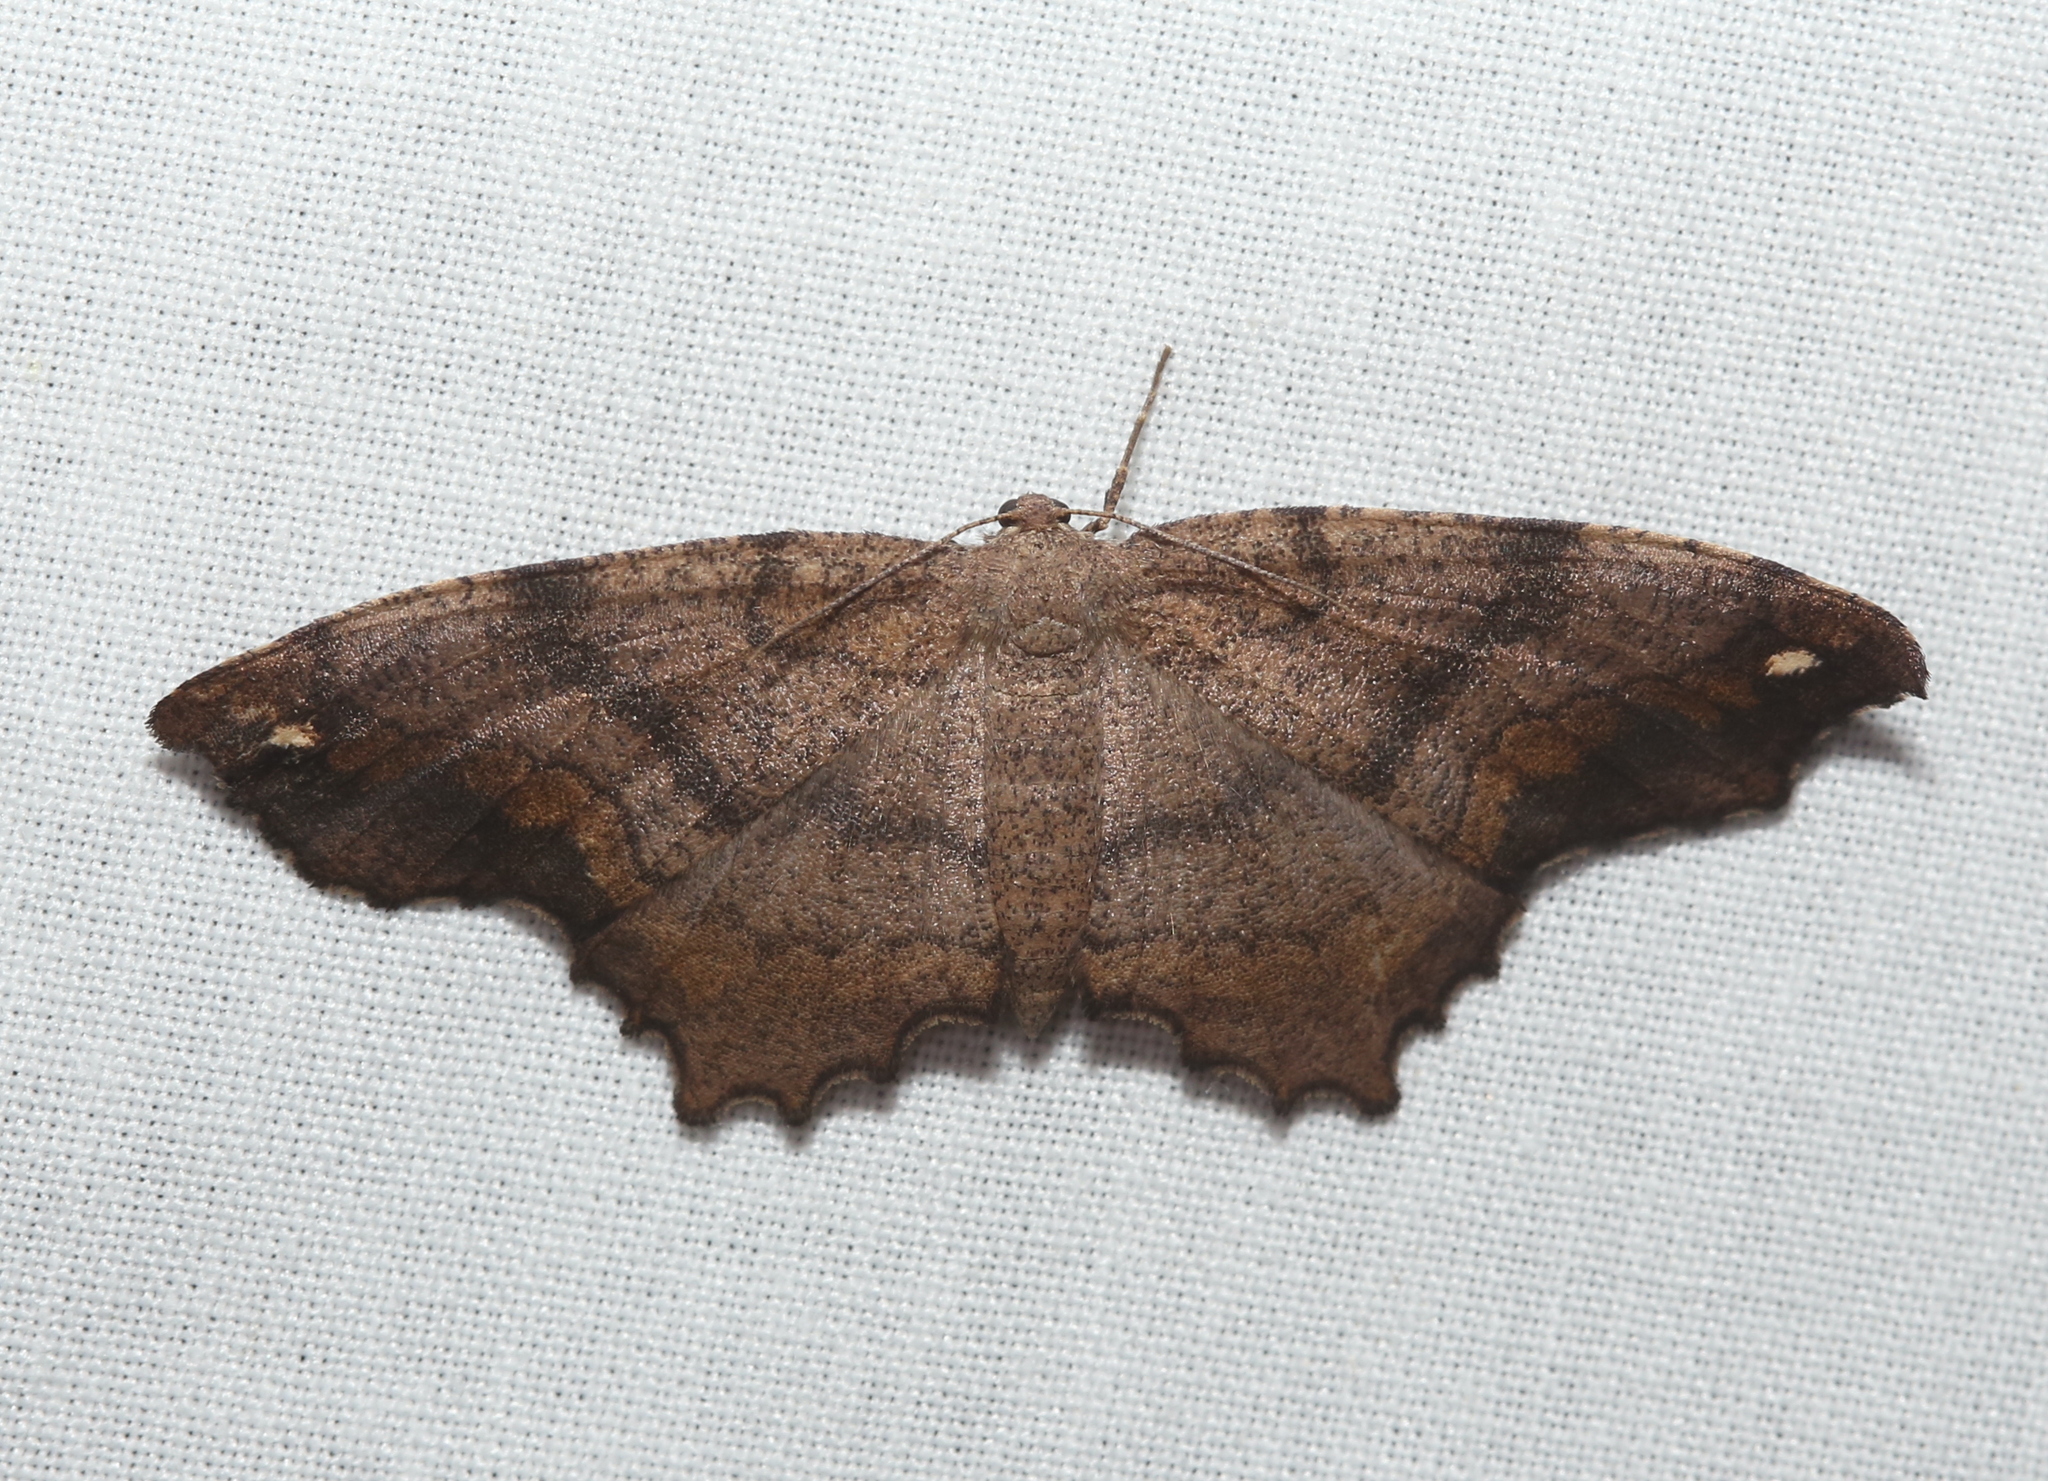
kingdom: Animalia
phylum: Arthropoda
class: Insecta
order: Lepidoptera
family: Geometridae
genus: Hypagyrtis
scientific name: Hypagyrtis esther
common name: Esther moth
